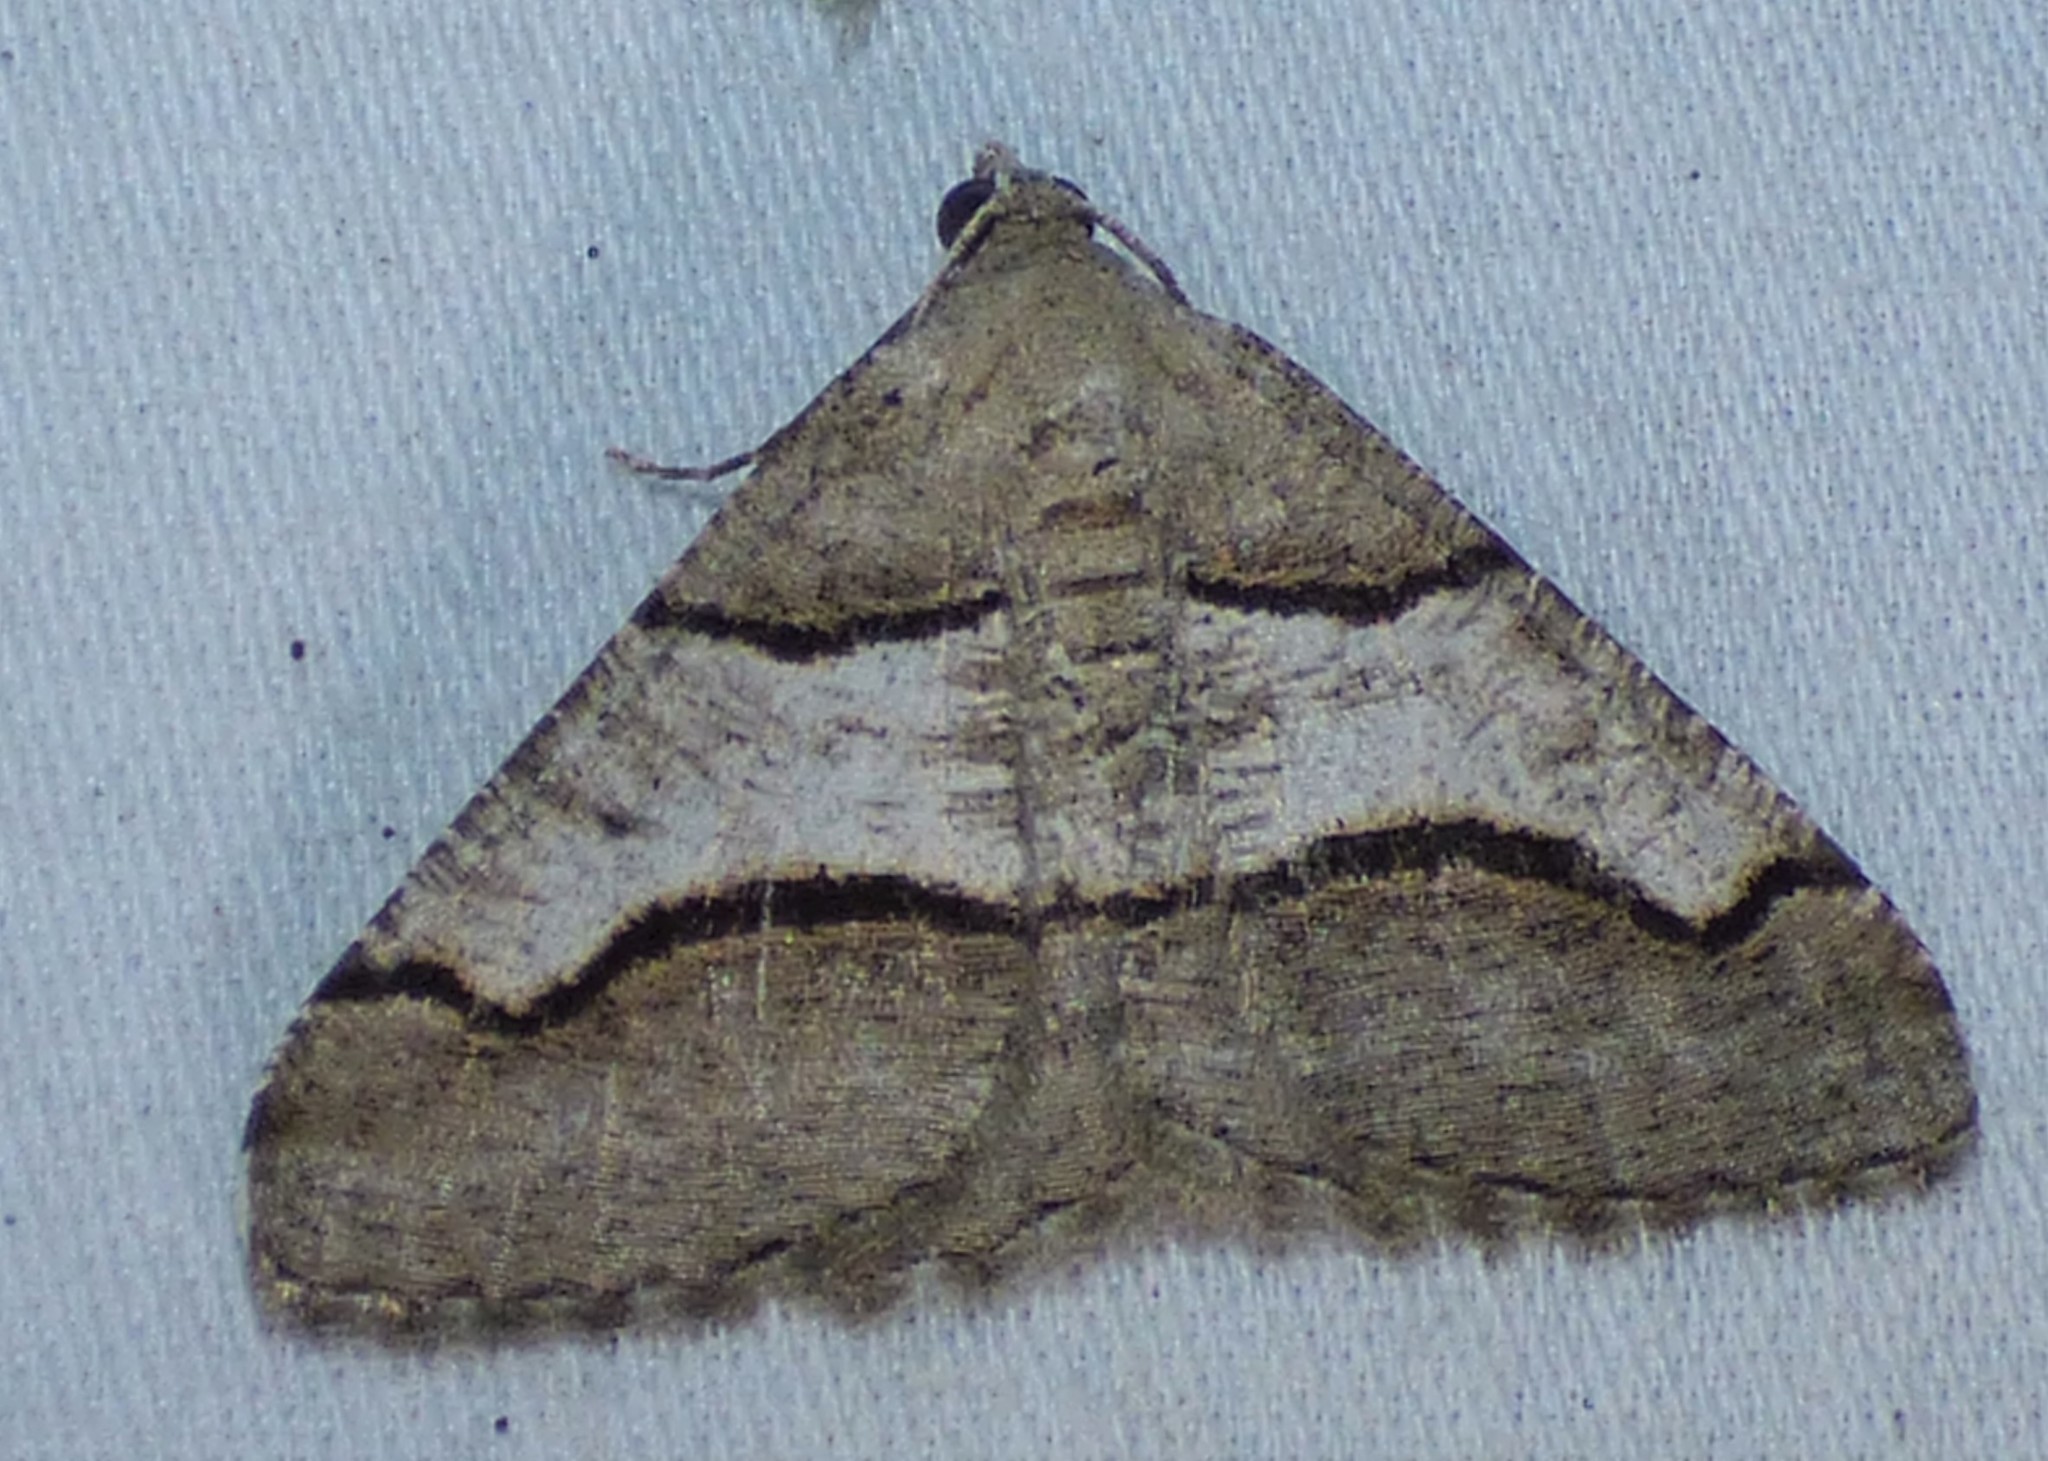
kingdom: Animalia
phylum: Arthropoda
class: Insecta
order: Lepidoptera
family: Geometridae
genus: Digrammia
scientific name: Digrammia continuata
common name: Curve-lined angle
